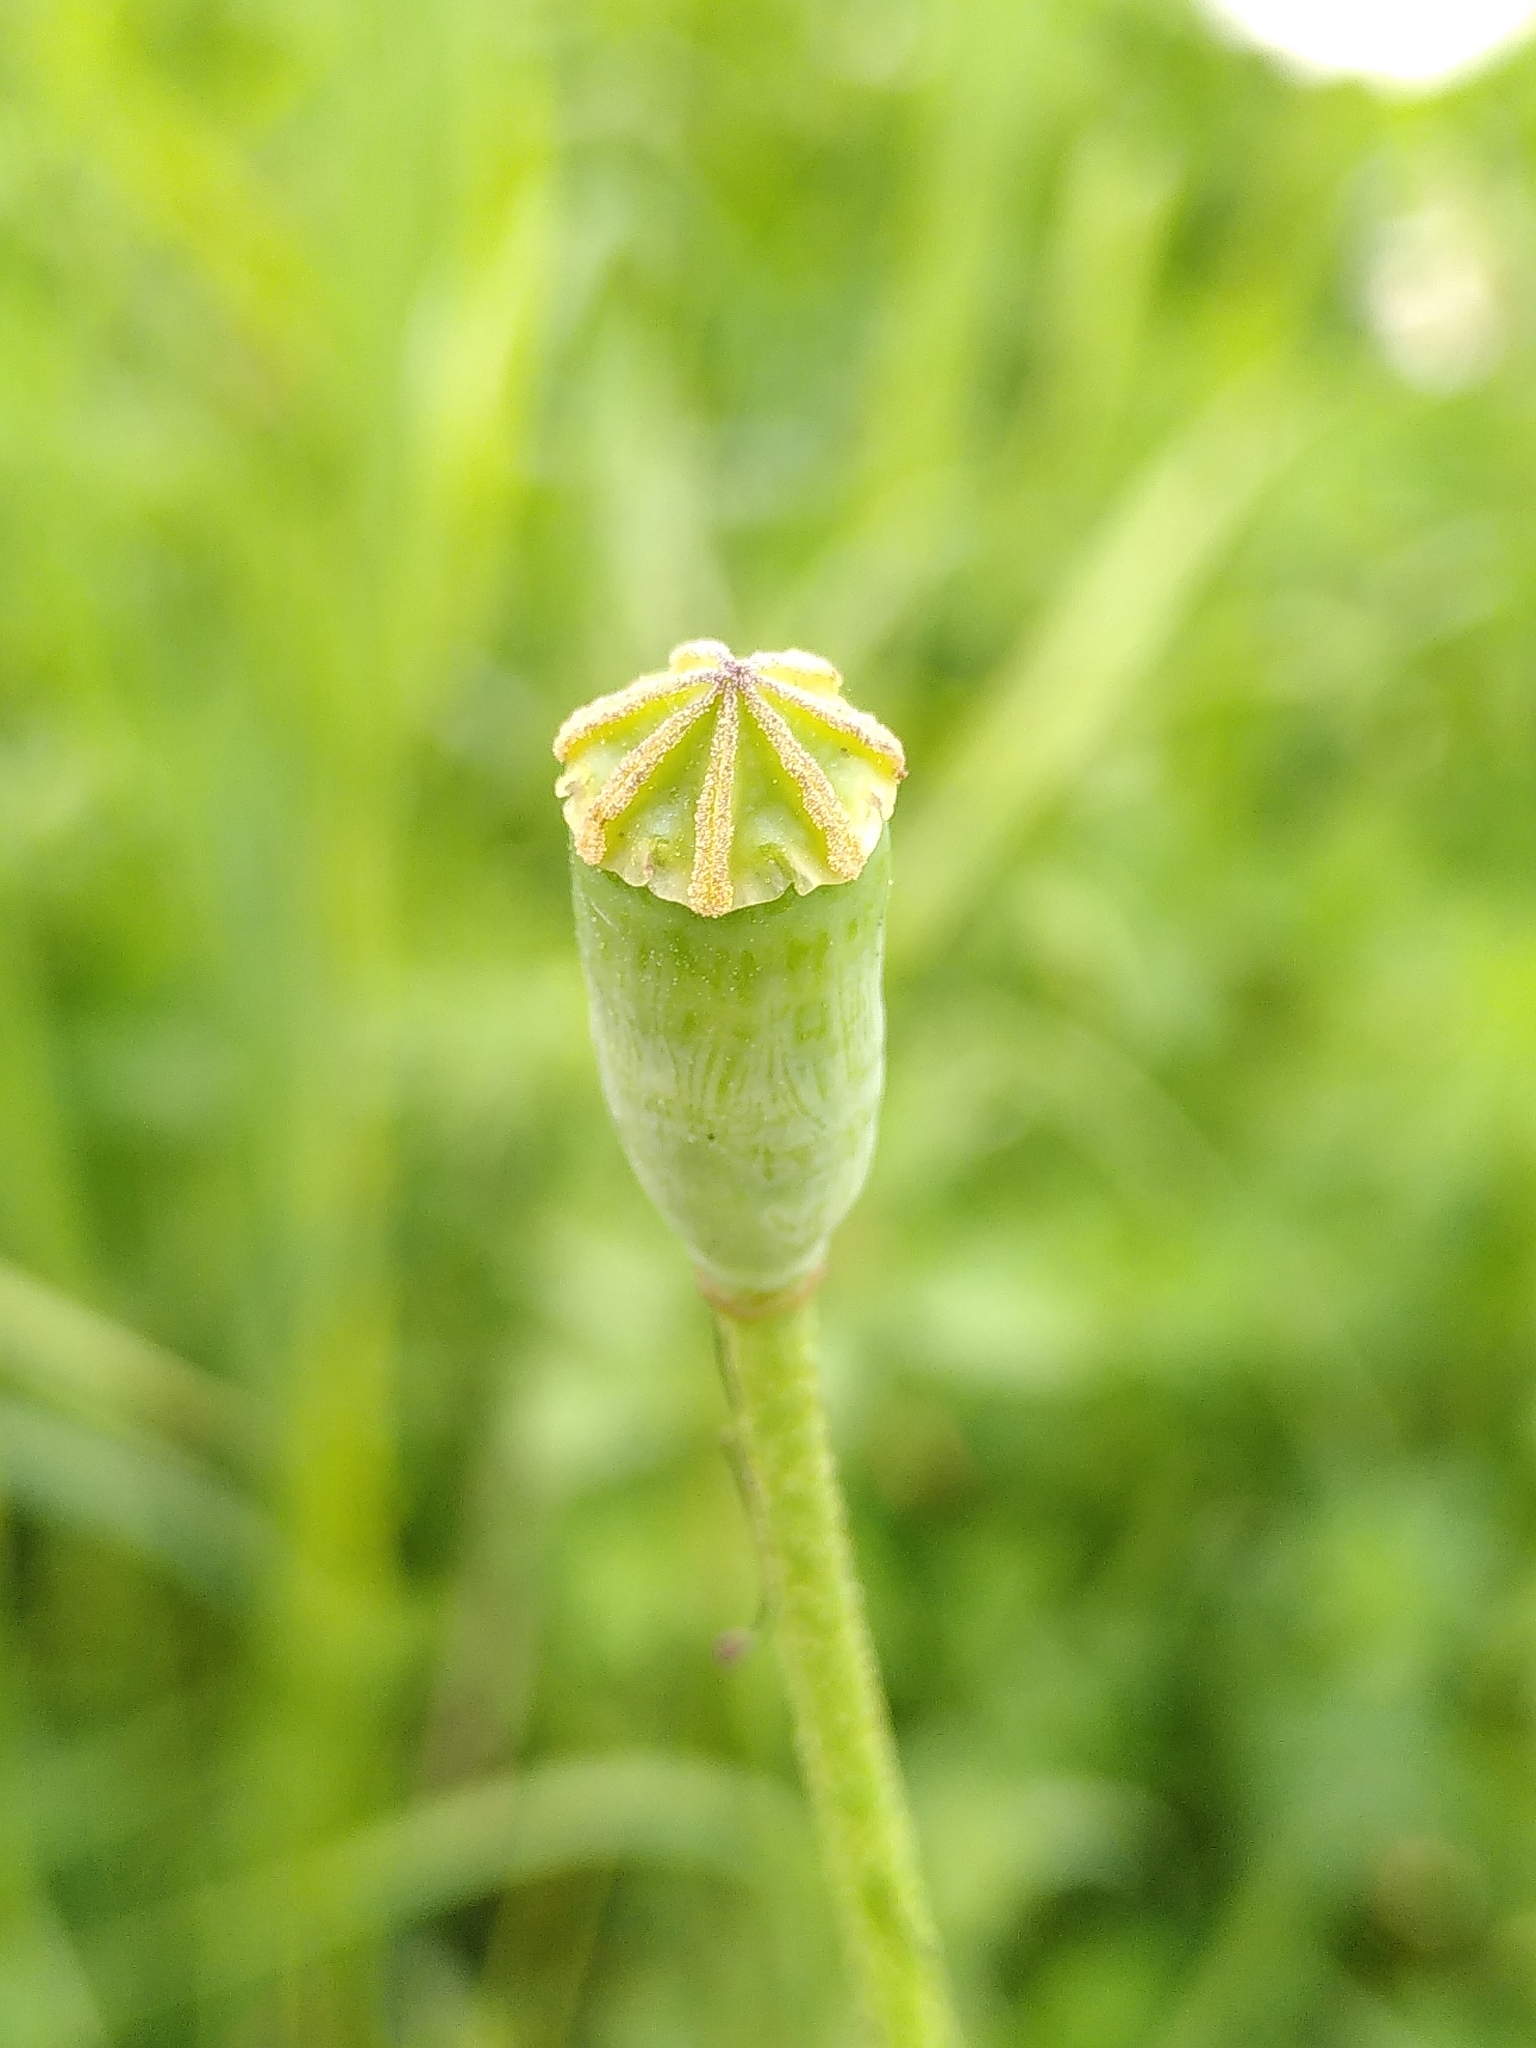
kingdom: Plantae
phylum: Tracheophyta
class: Magnoliopsida
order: Ranunculales
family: Papaveraceae
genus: Papaver
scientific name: Papaver dubium
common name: Long-headed poppy
